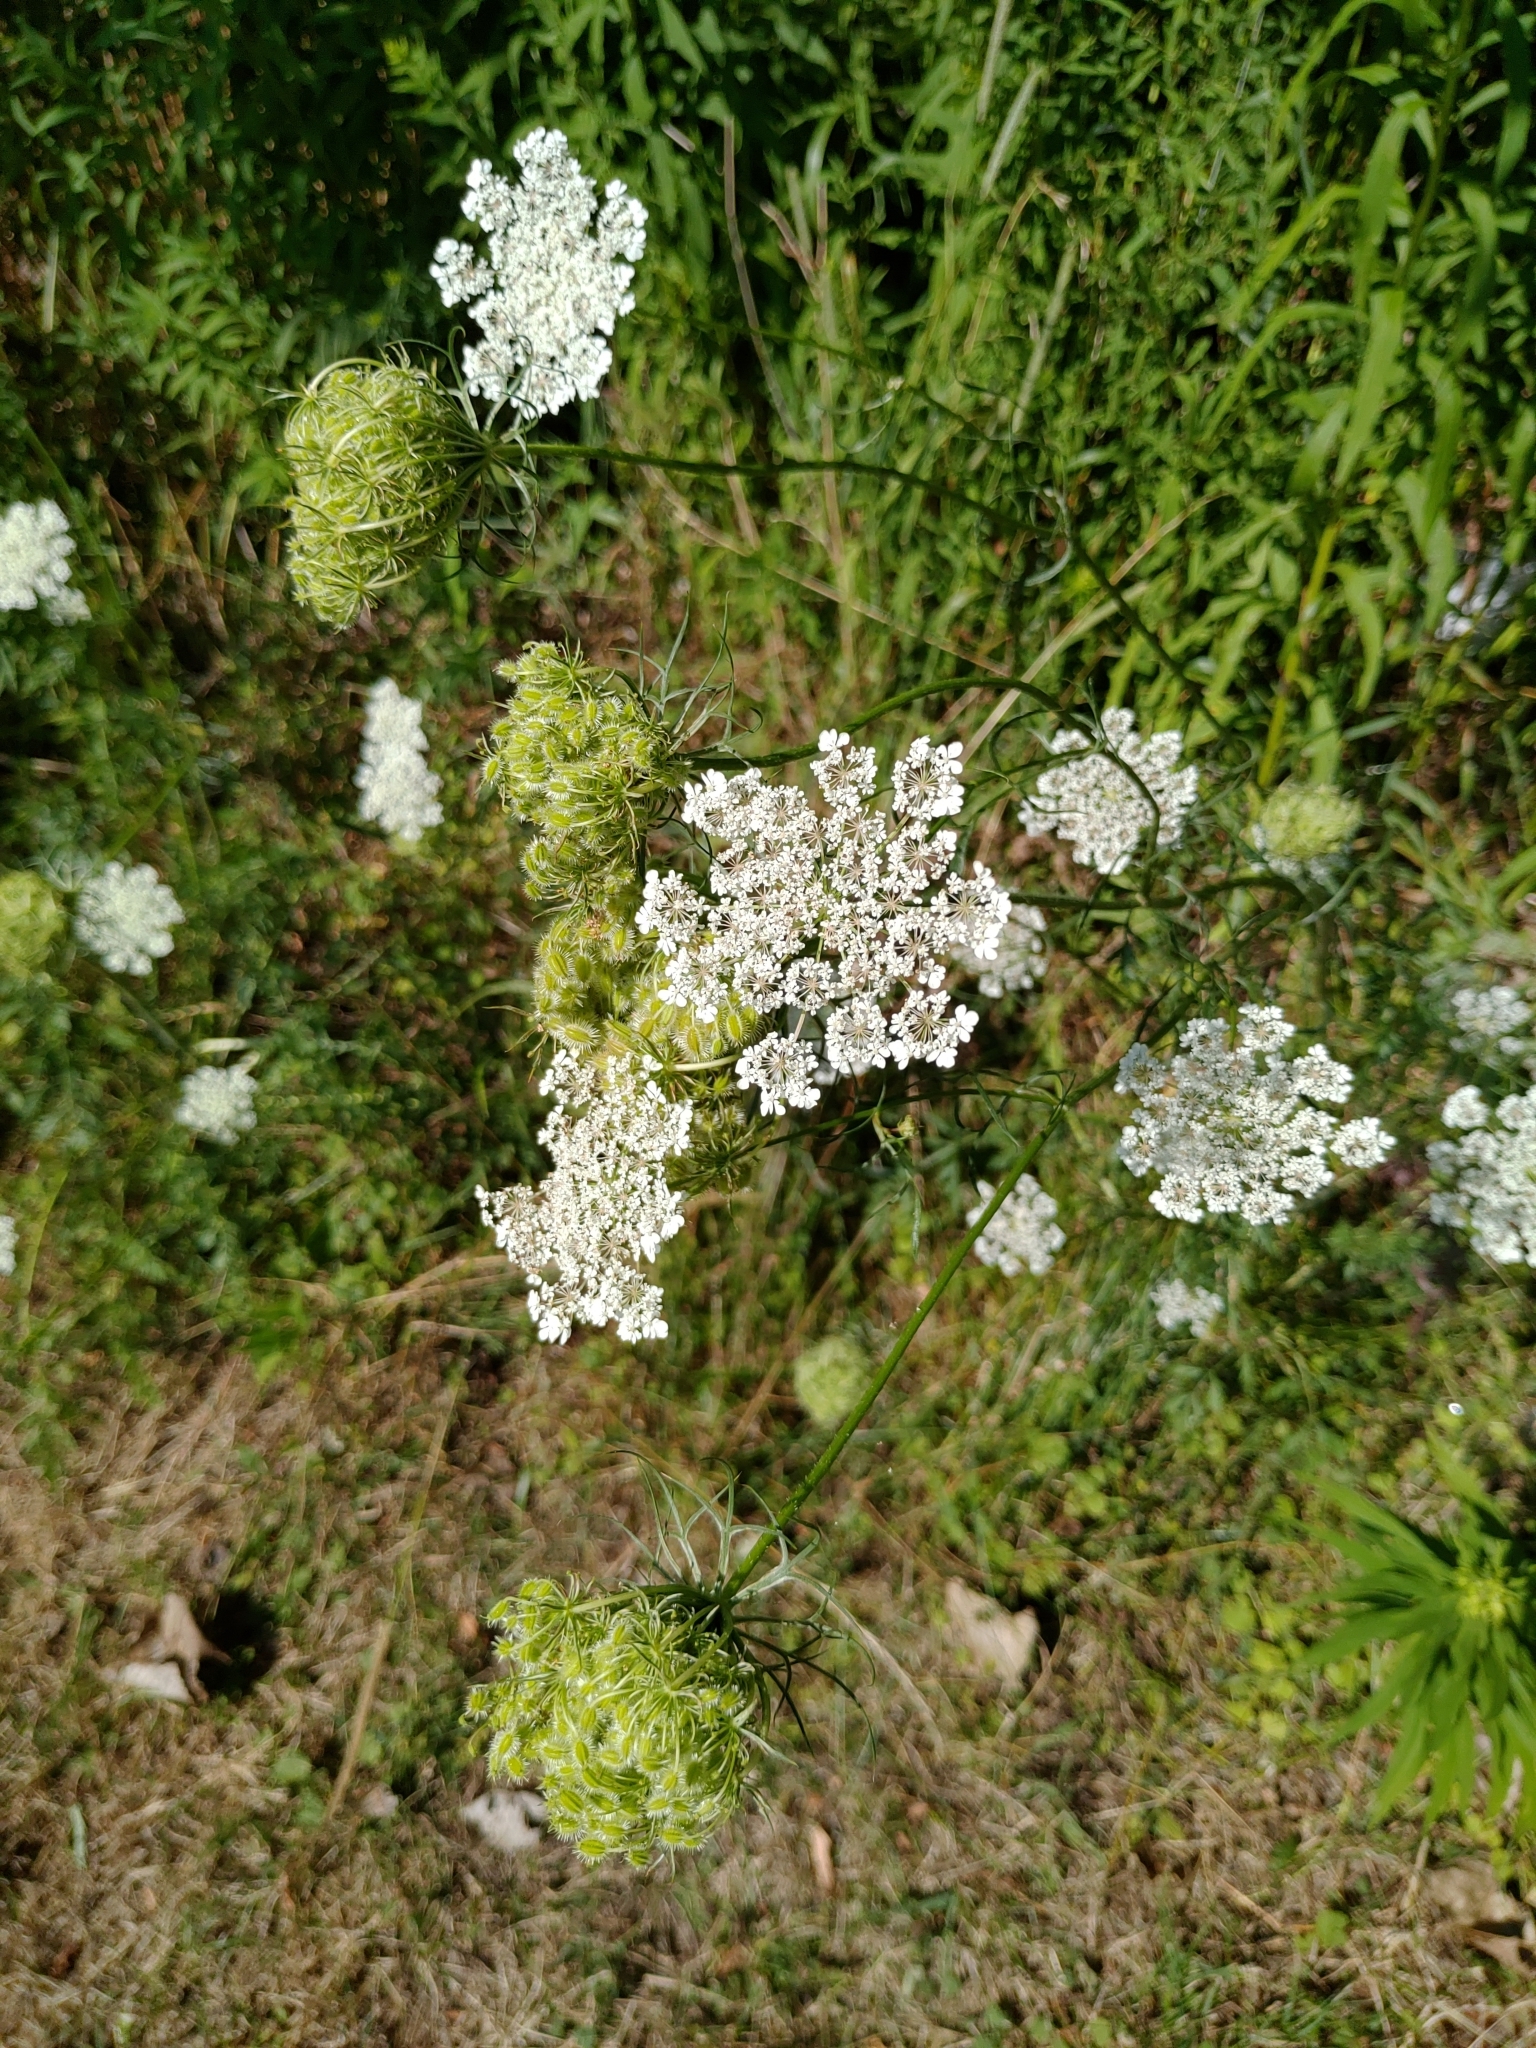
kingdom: Plantae
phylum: Tracheophyta
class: Magnoliopsida
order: Apiales
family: Apiaceae
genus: Daucus
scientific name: Daucus carota
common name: Wild carrot
